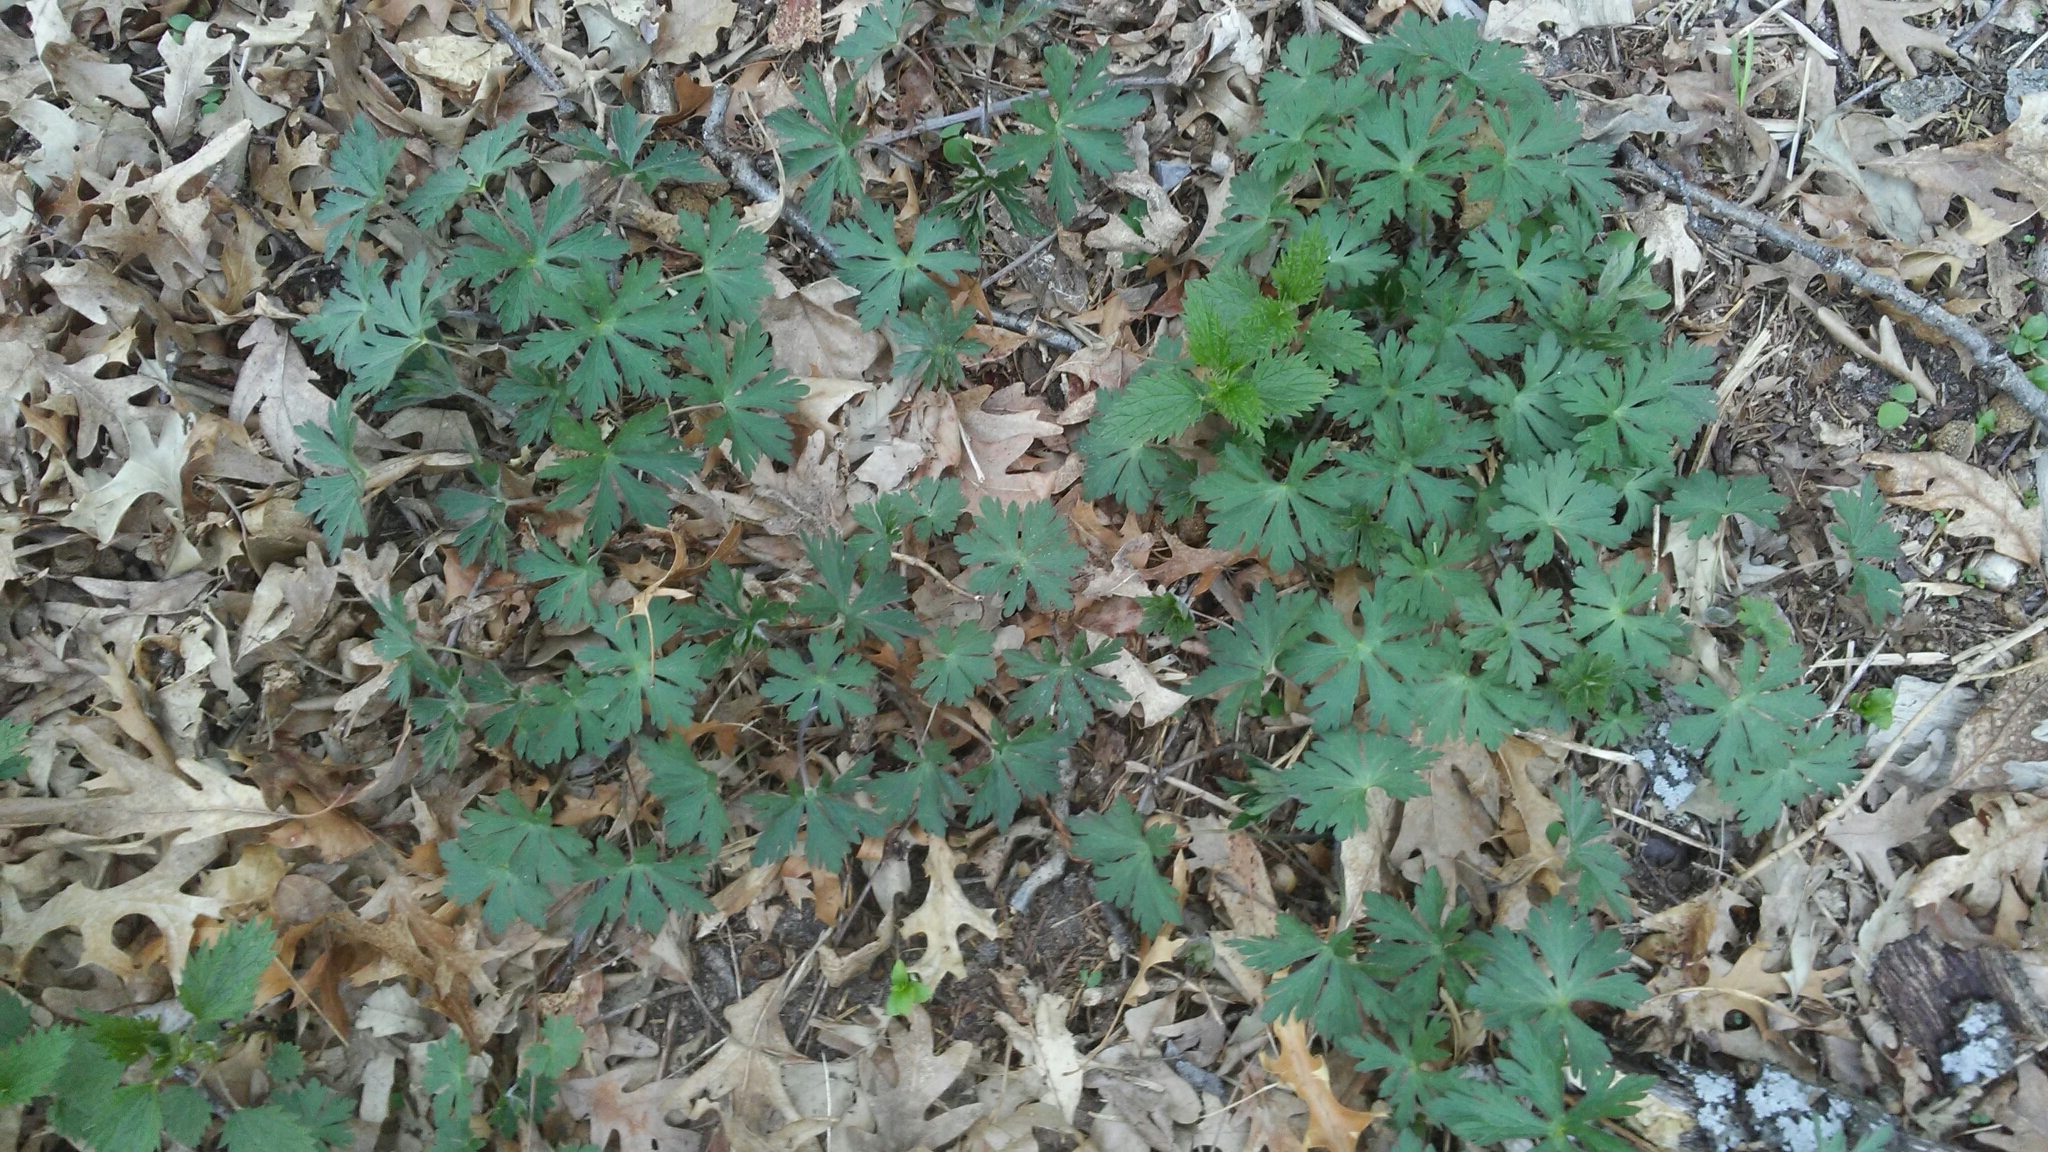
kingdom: Plantae
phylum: Tracheophyta
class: Magnoliopsida
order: Geraniales
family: Geraniaceae
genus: Geranium
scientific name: Geranium maculatum
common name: Spotted geranium
